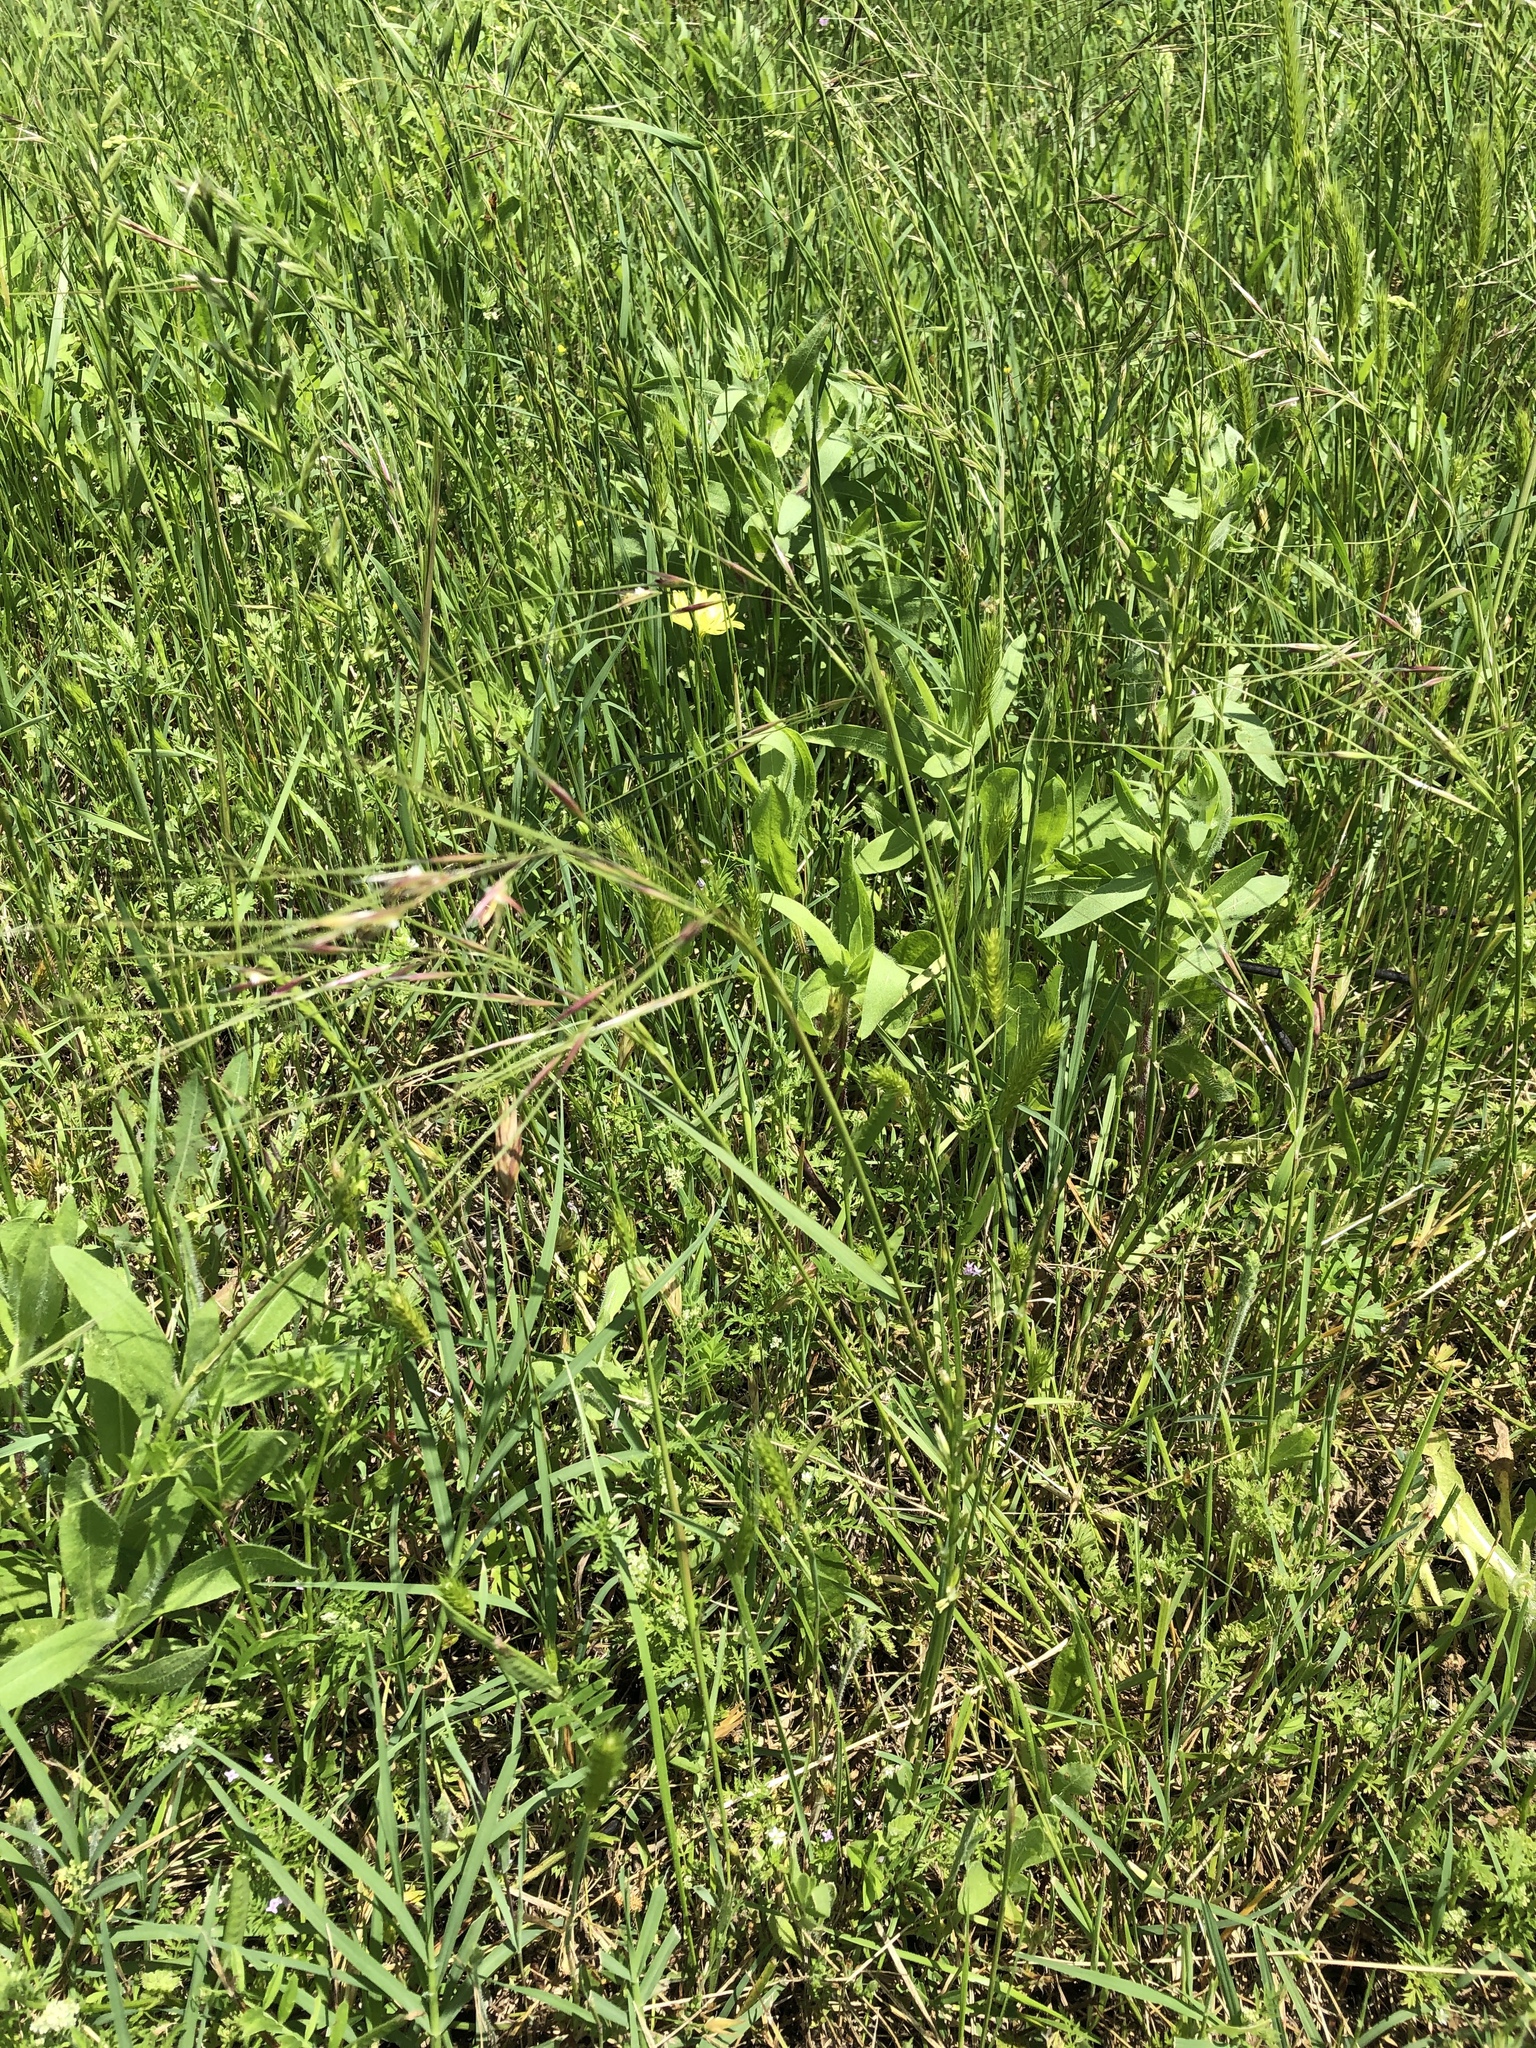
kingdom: Plantae
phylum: Tracheophyta
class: Liliopsida
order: Poales
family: Poaceae
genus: Nassella
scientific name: Nassella leucotricha
